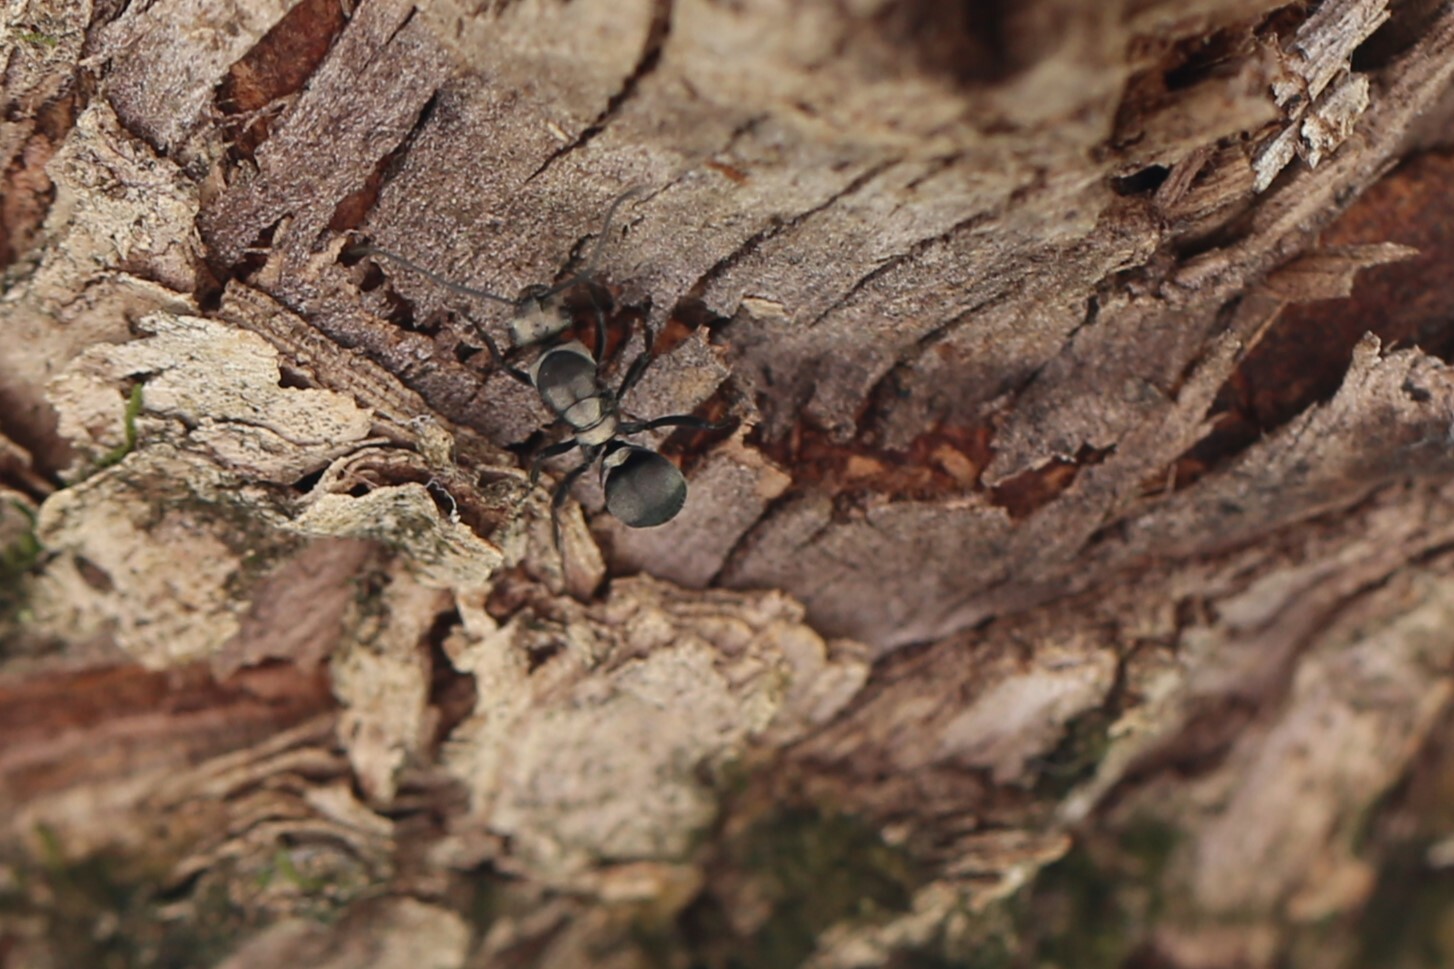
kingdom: Animalia
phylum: Arthropoda
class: Insecta
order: Hymenoptera
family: Formicidae
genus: Polyrhachis
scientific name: Polyrhachis daemeli
